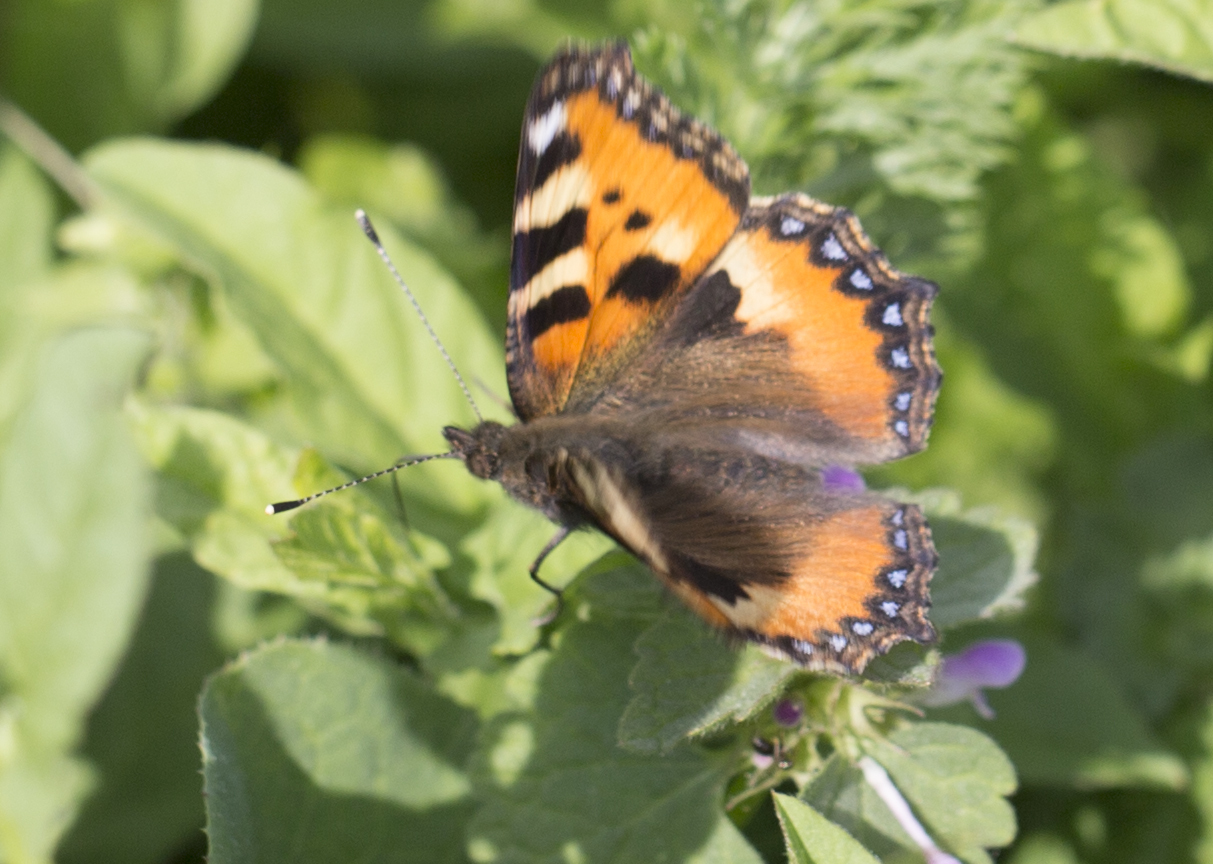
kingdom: Animalia
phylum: Arthropoda
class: Insecta
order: Lepidoptera
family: Nymphalidae
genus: Aglais
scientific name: Aglais urticae
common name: Small tortoiseshell
